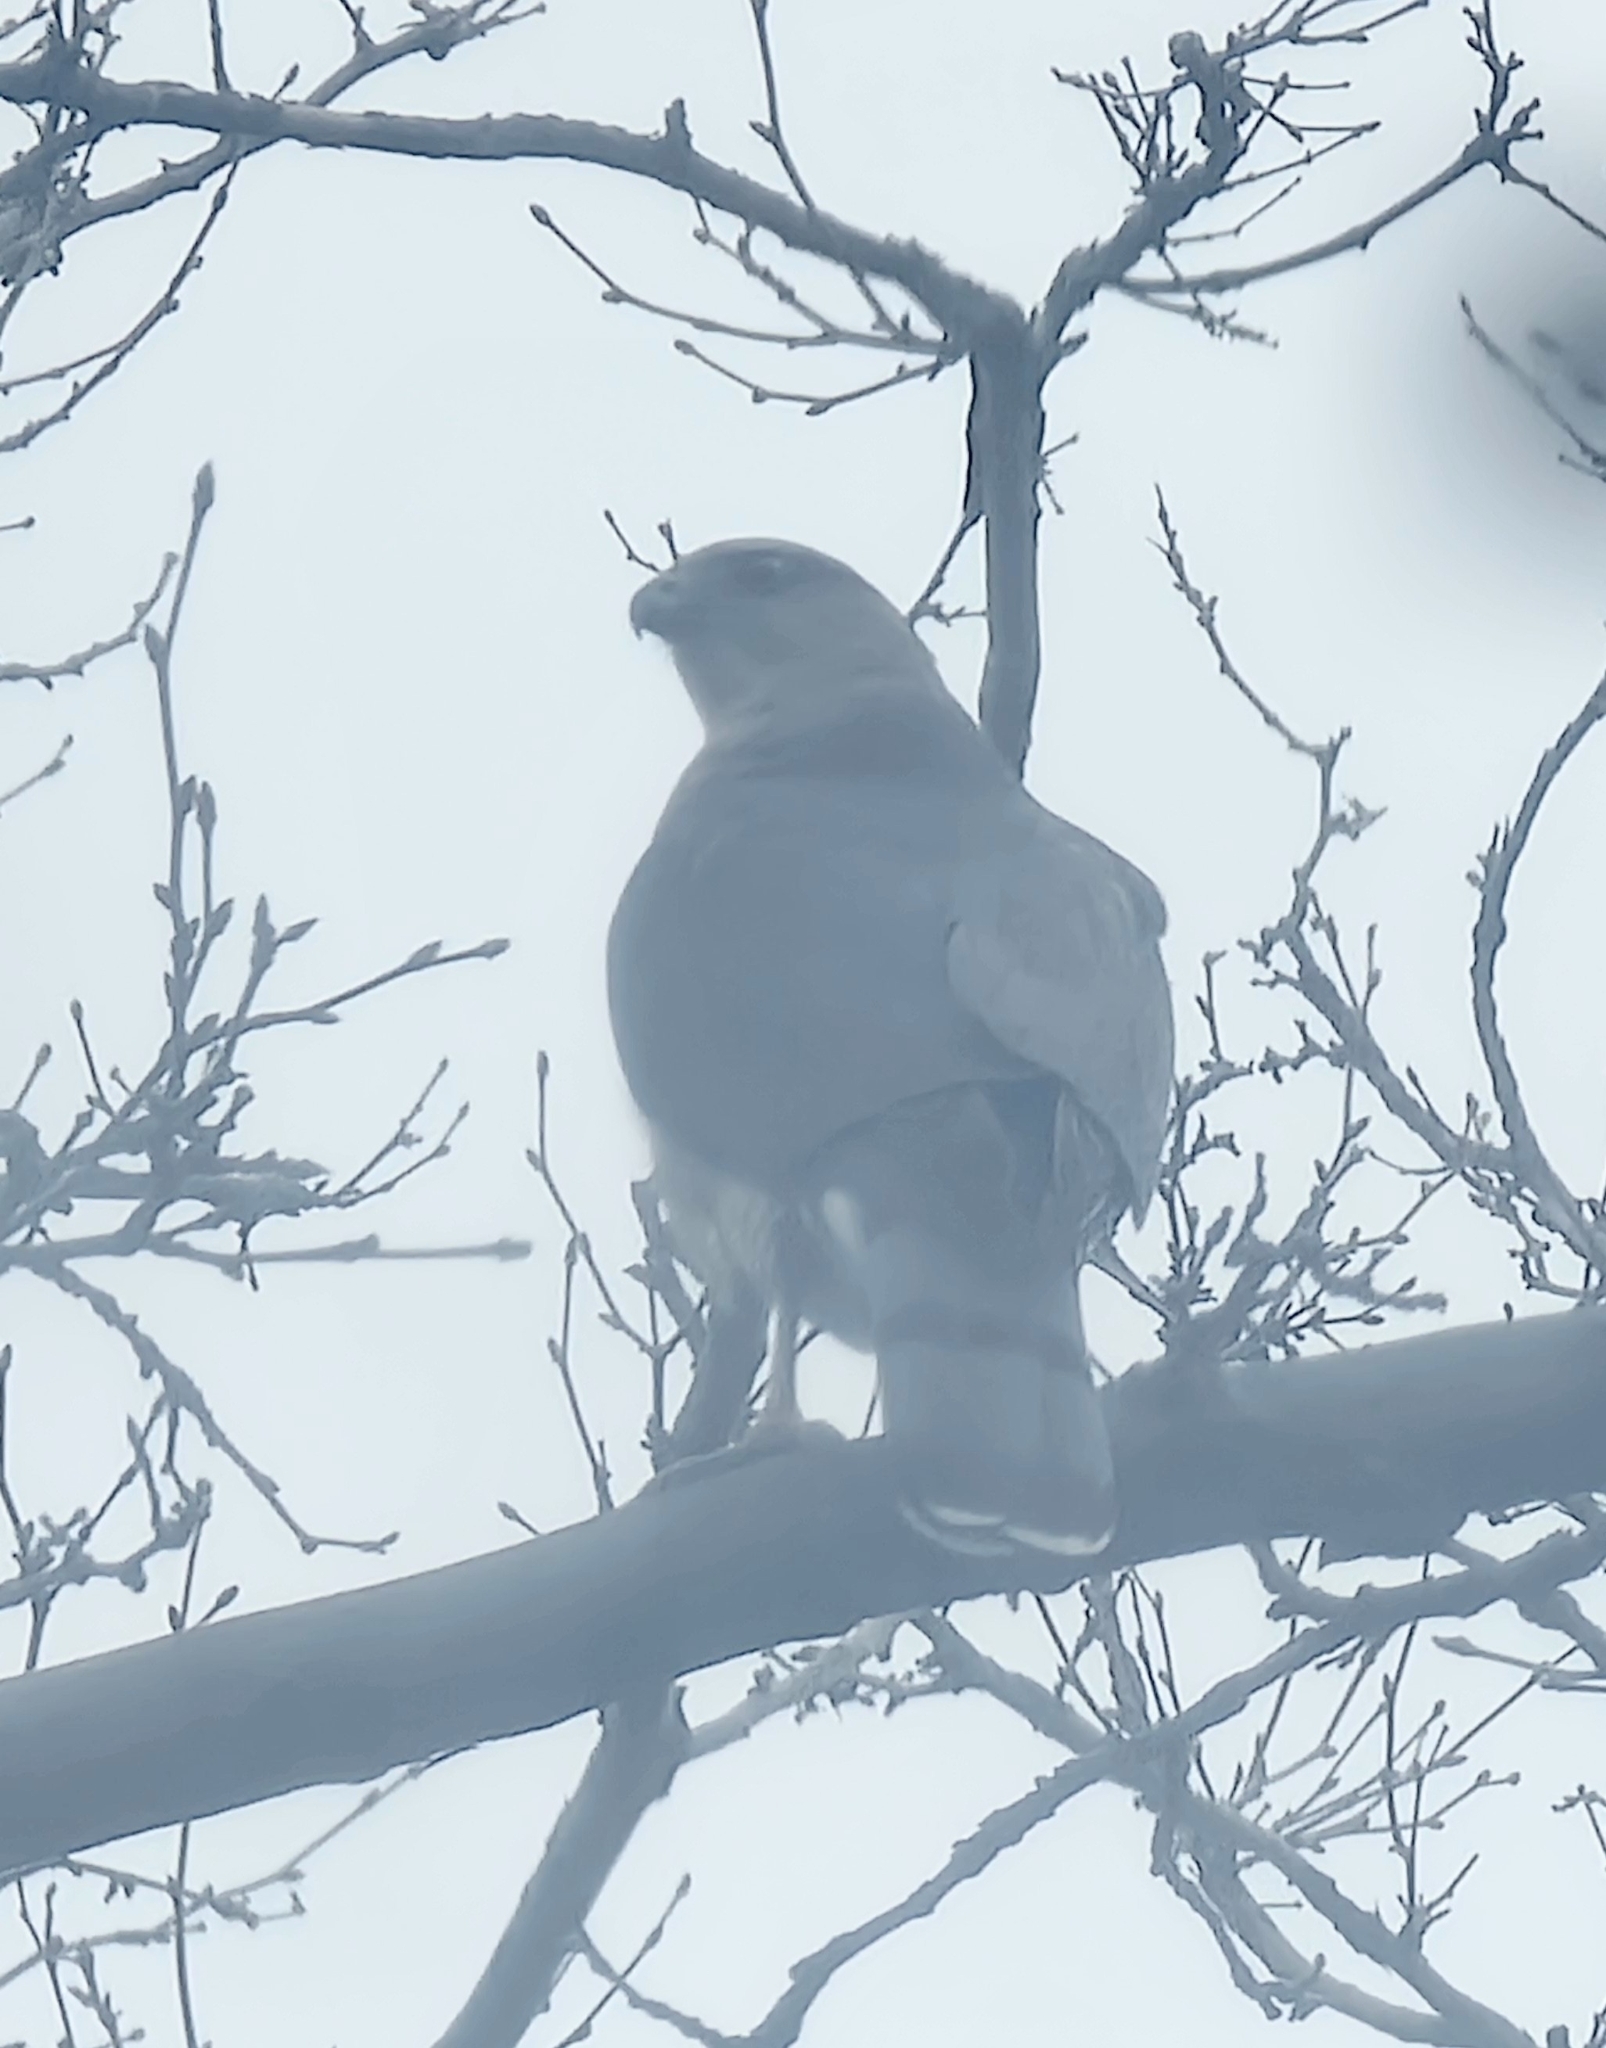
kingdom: Animalia
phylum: Chordata
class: Aves
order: Accipitriformes
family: Accipitridae
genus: Accipiter
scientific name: Accipiter cooperii
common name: Cooper's hawk
